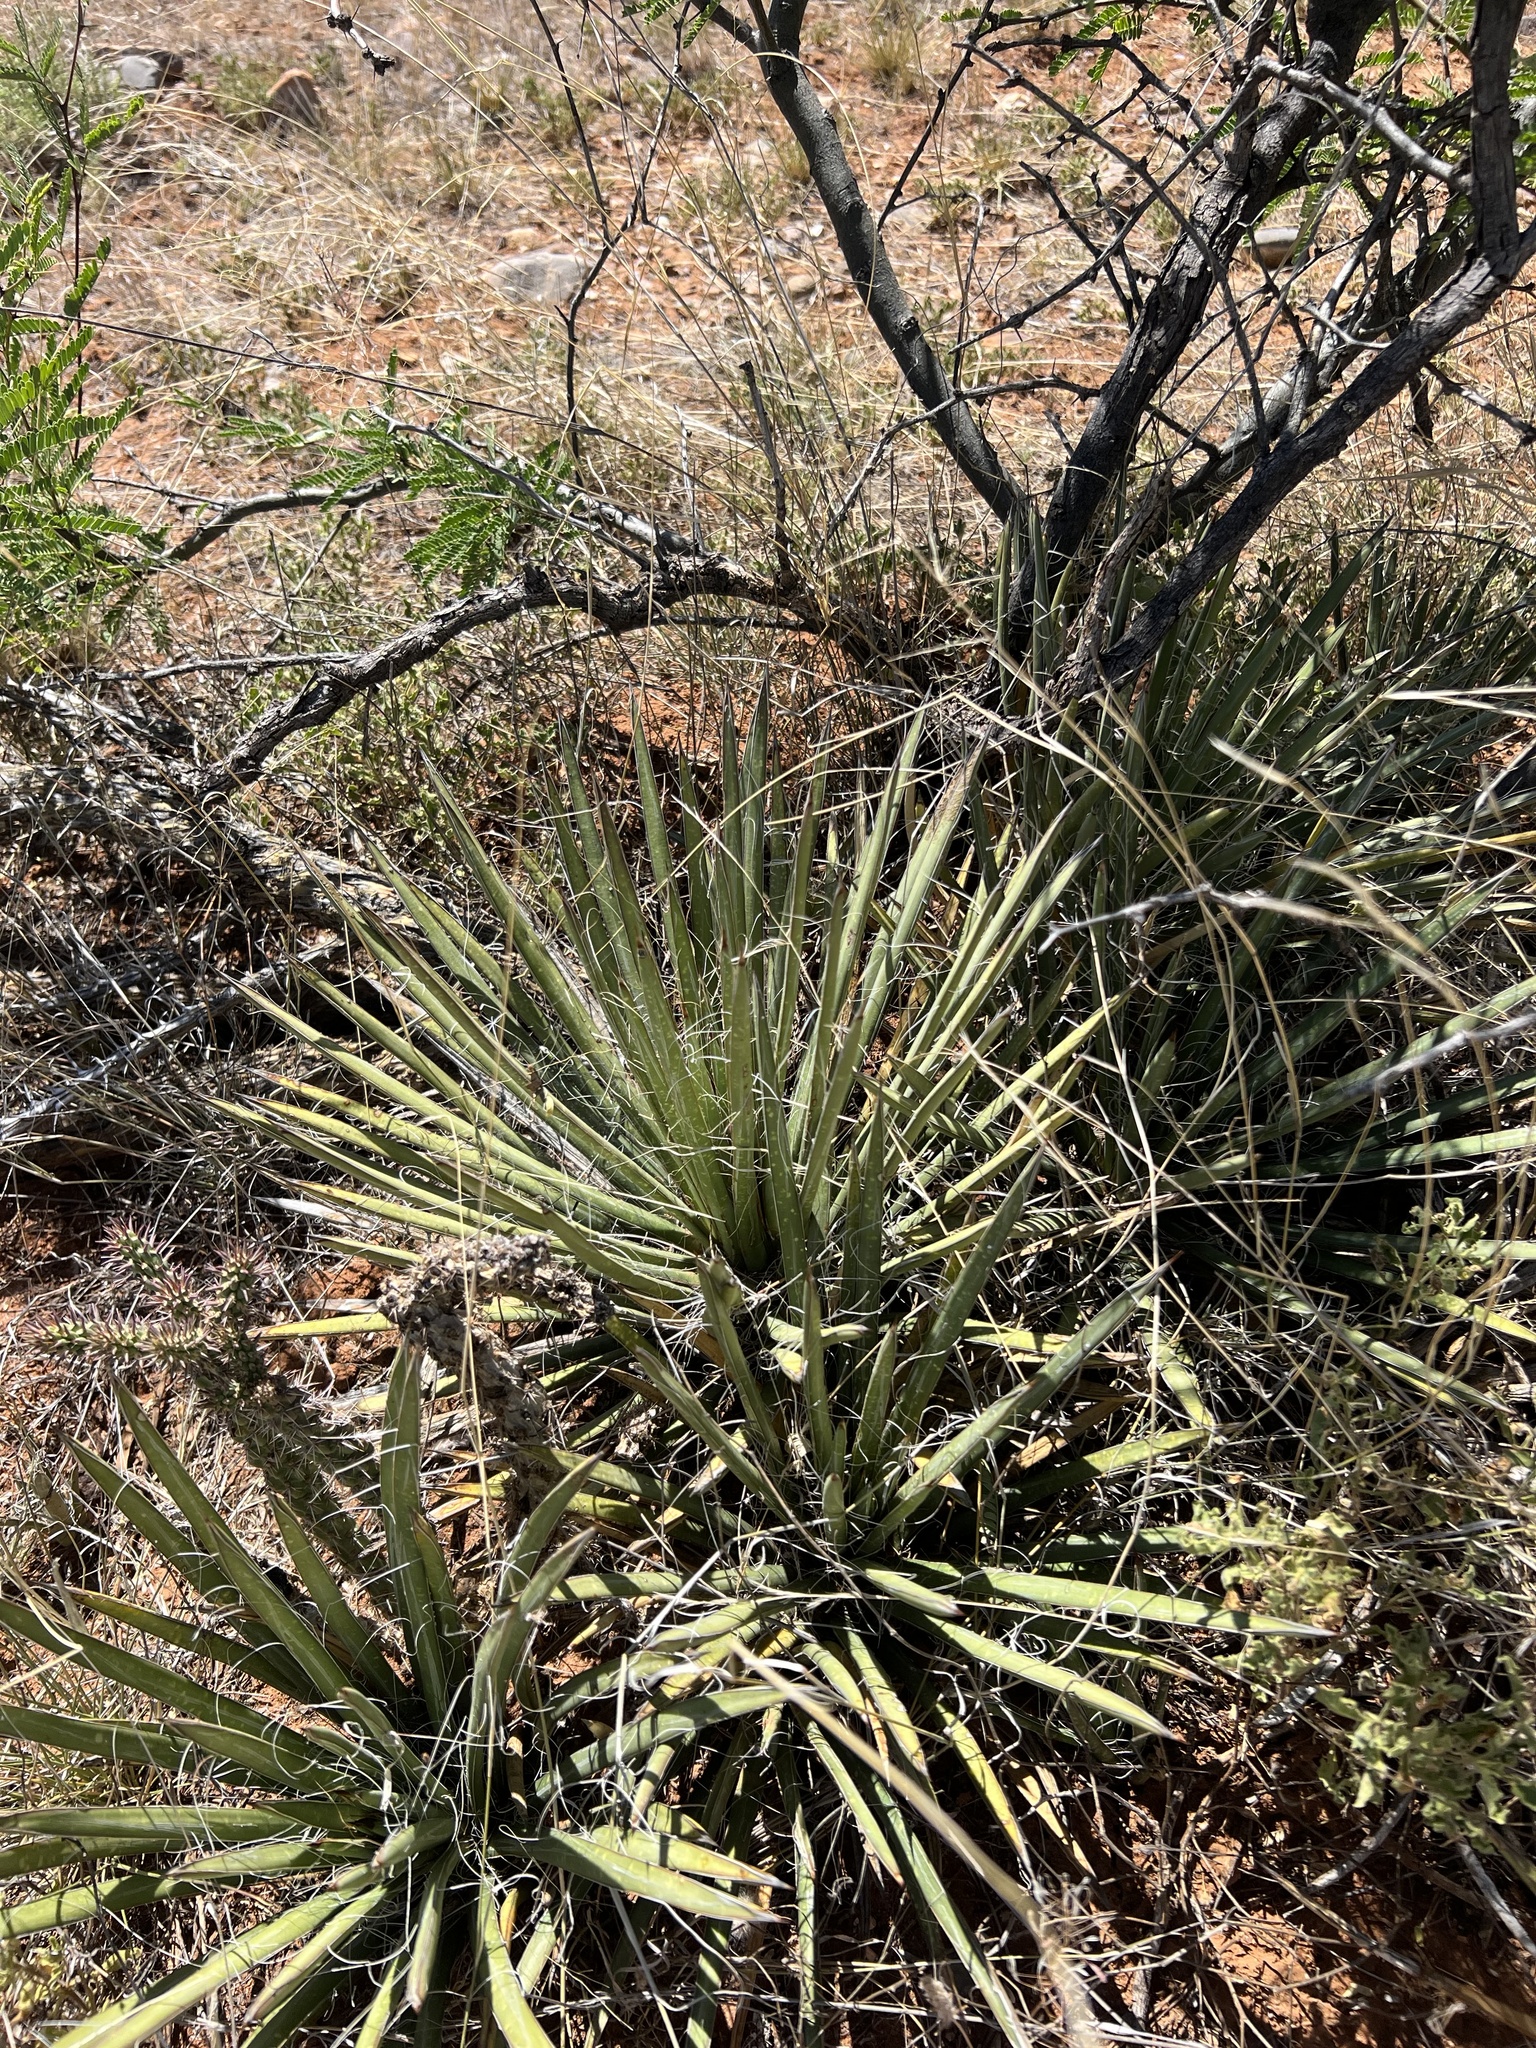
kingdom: Plantae
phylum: Tracheophyta
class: Liliopsida
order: Asparagales
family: Asparagaceae
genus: Agave
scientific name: Agave schottii
